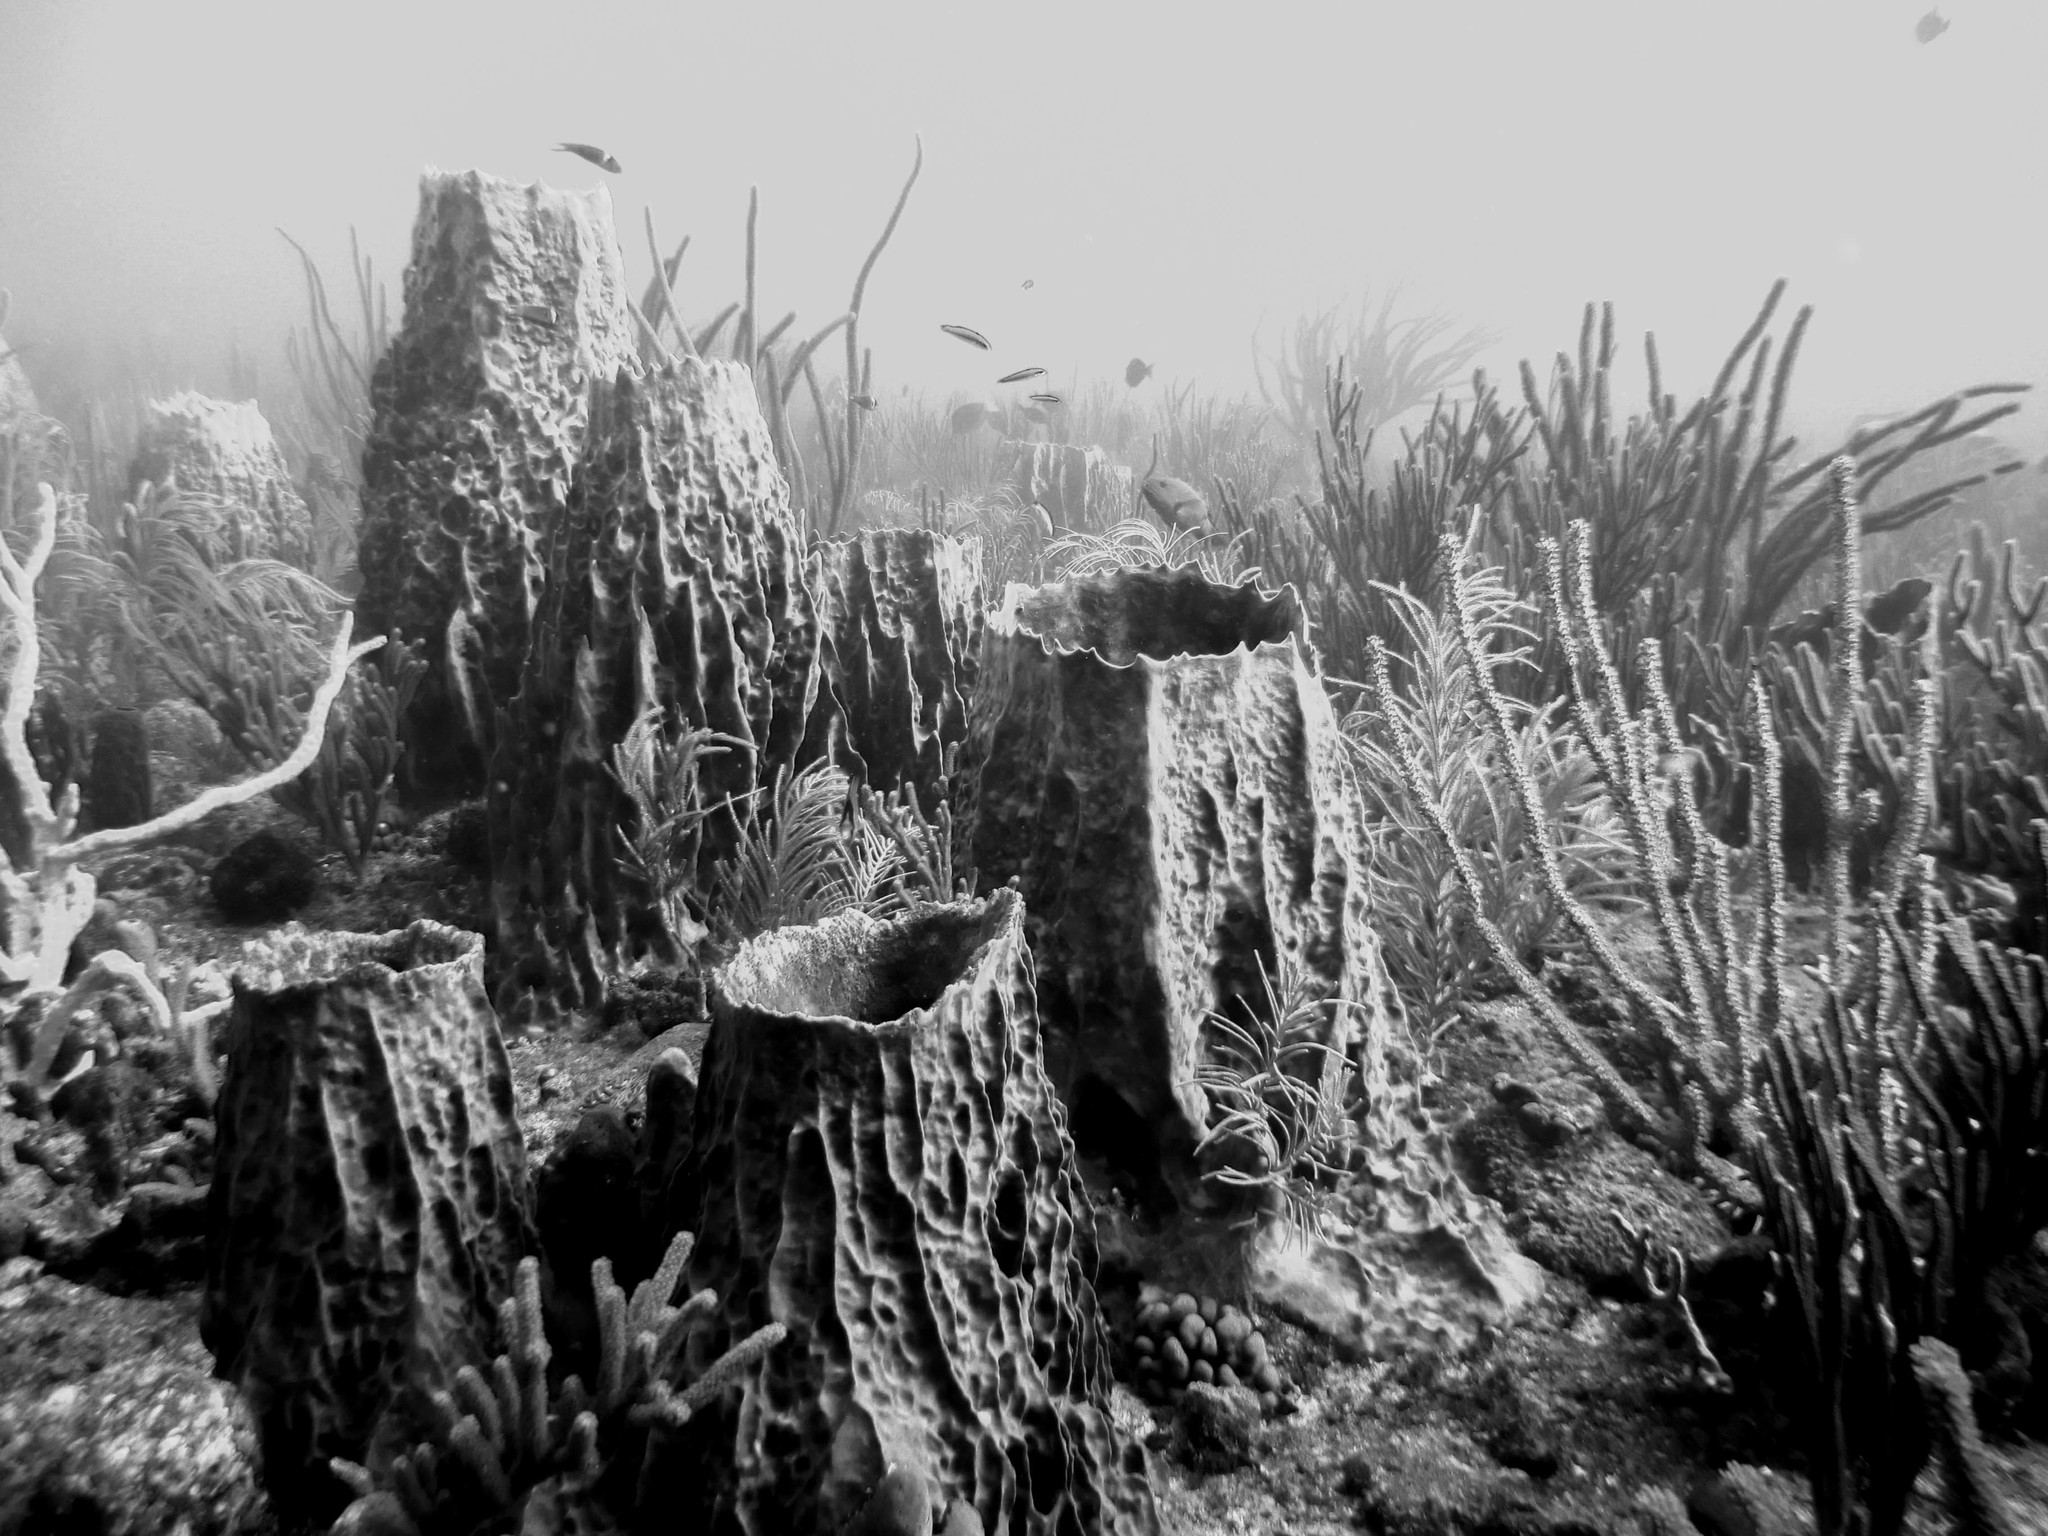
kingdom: Animalia
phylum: Porifera
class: Demospongiae
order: Haplosclerida
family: Petrosiidae
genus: Xestospongia
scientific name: Xestospongia muta
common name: Giant barrel sponge
